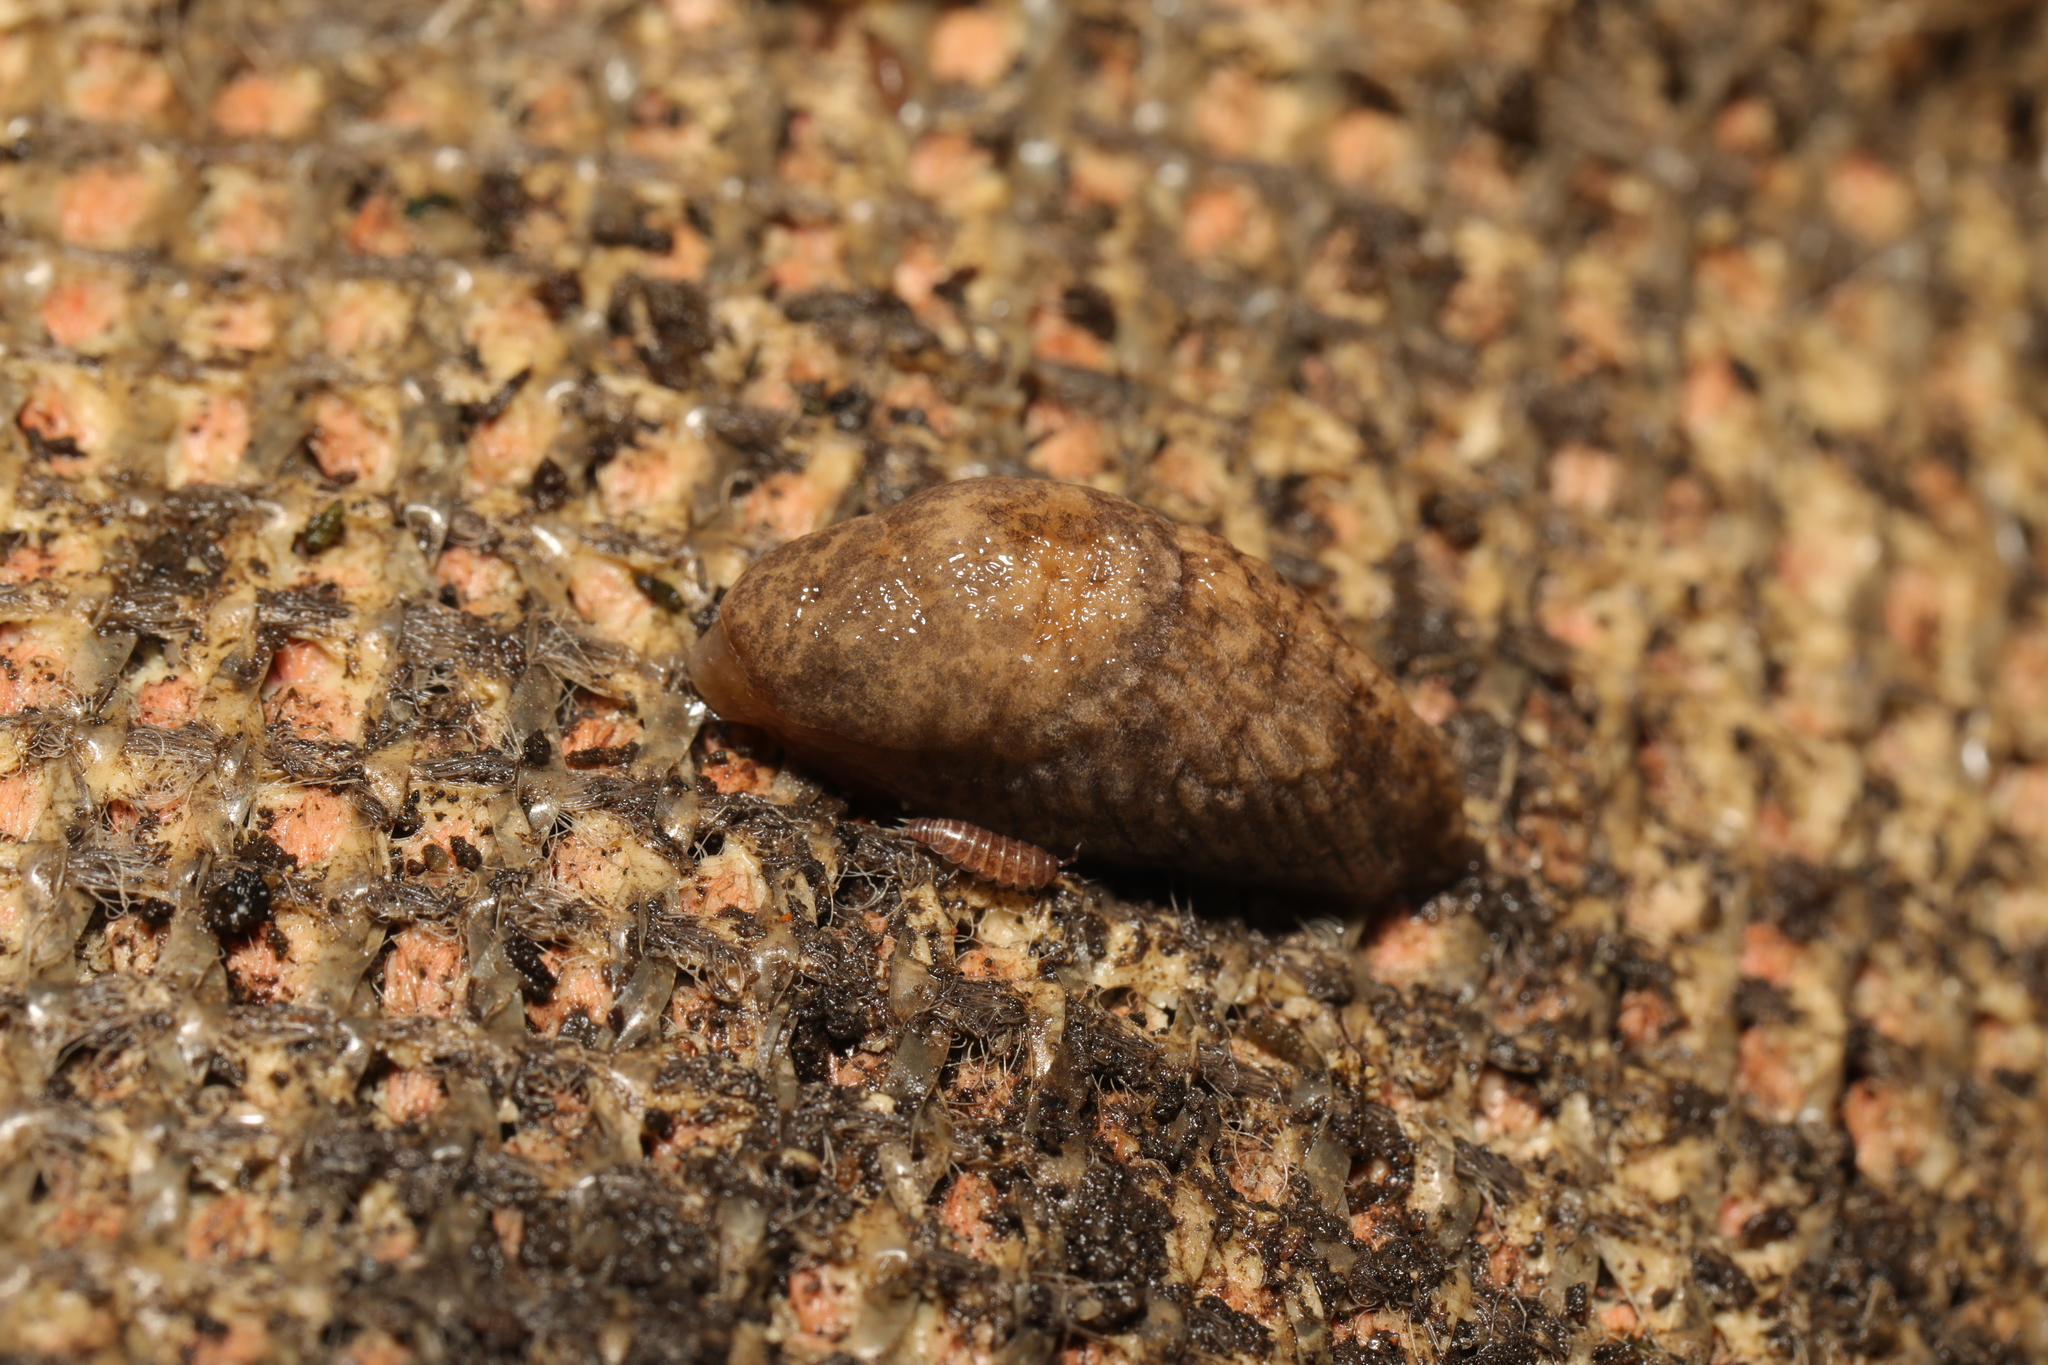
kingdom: Animalia
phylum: Mollusca
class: Gastropoda
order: Stylommatophora
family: Agriolimacidae
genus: Deroceras
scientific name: Deroceras reticulatum
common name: Gray field slug
